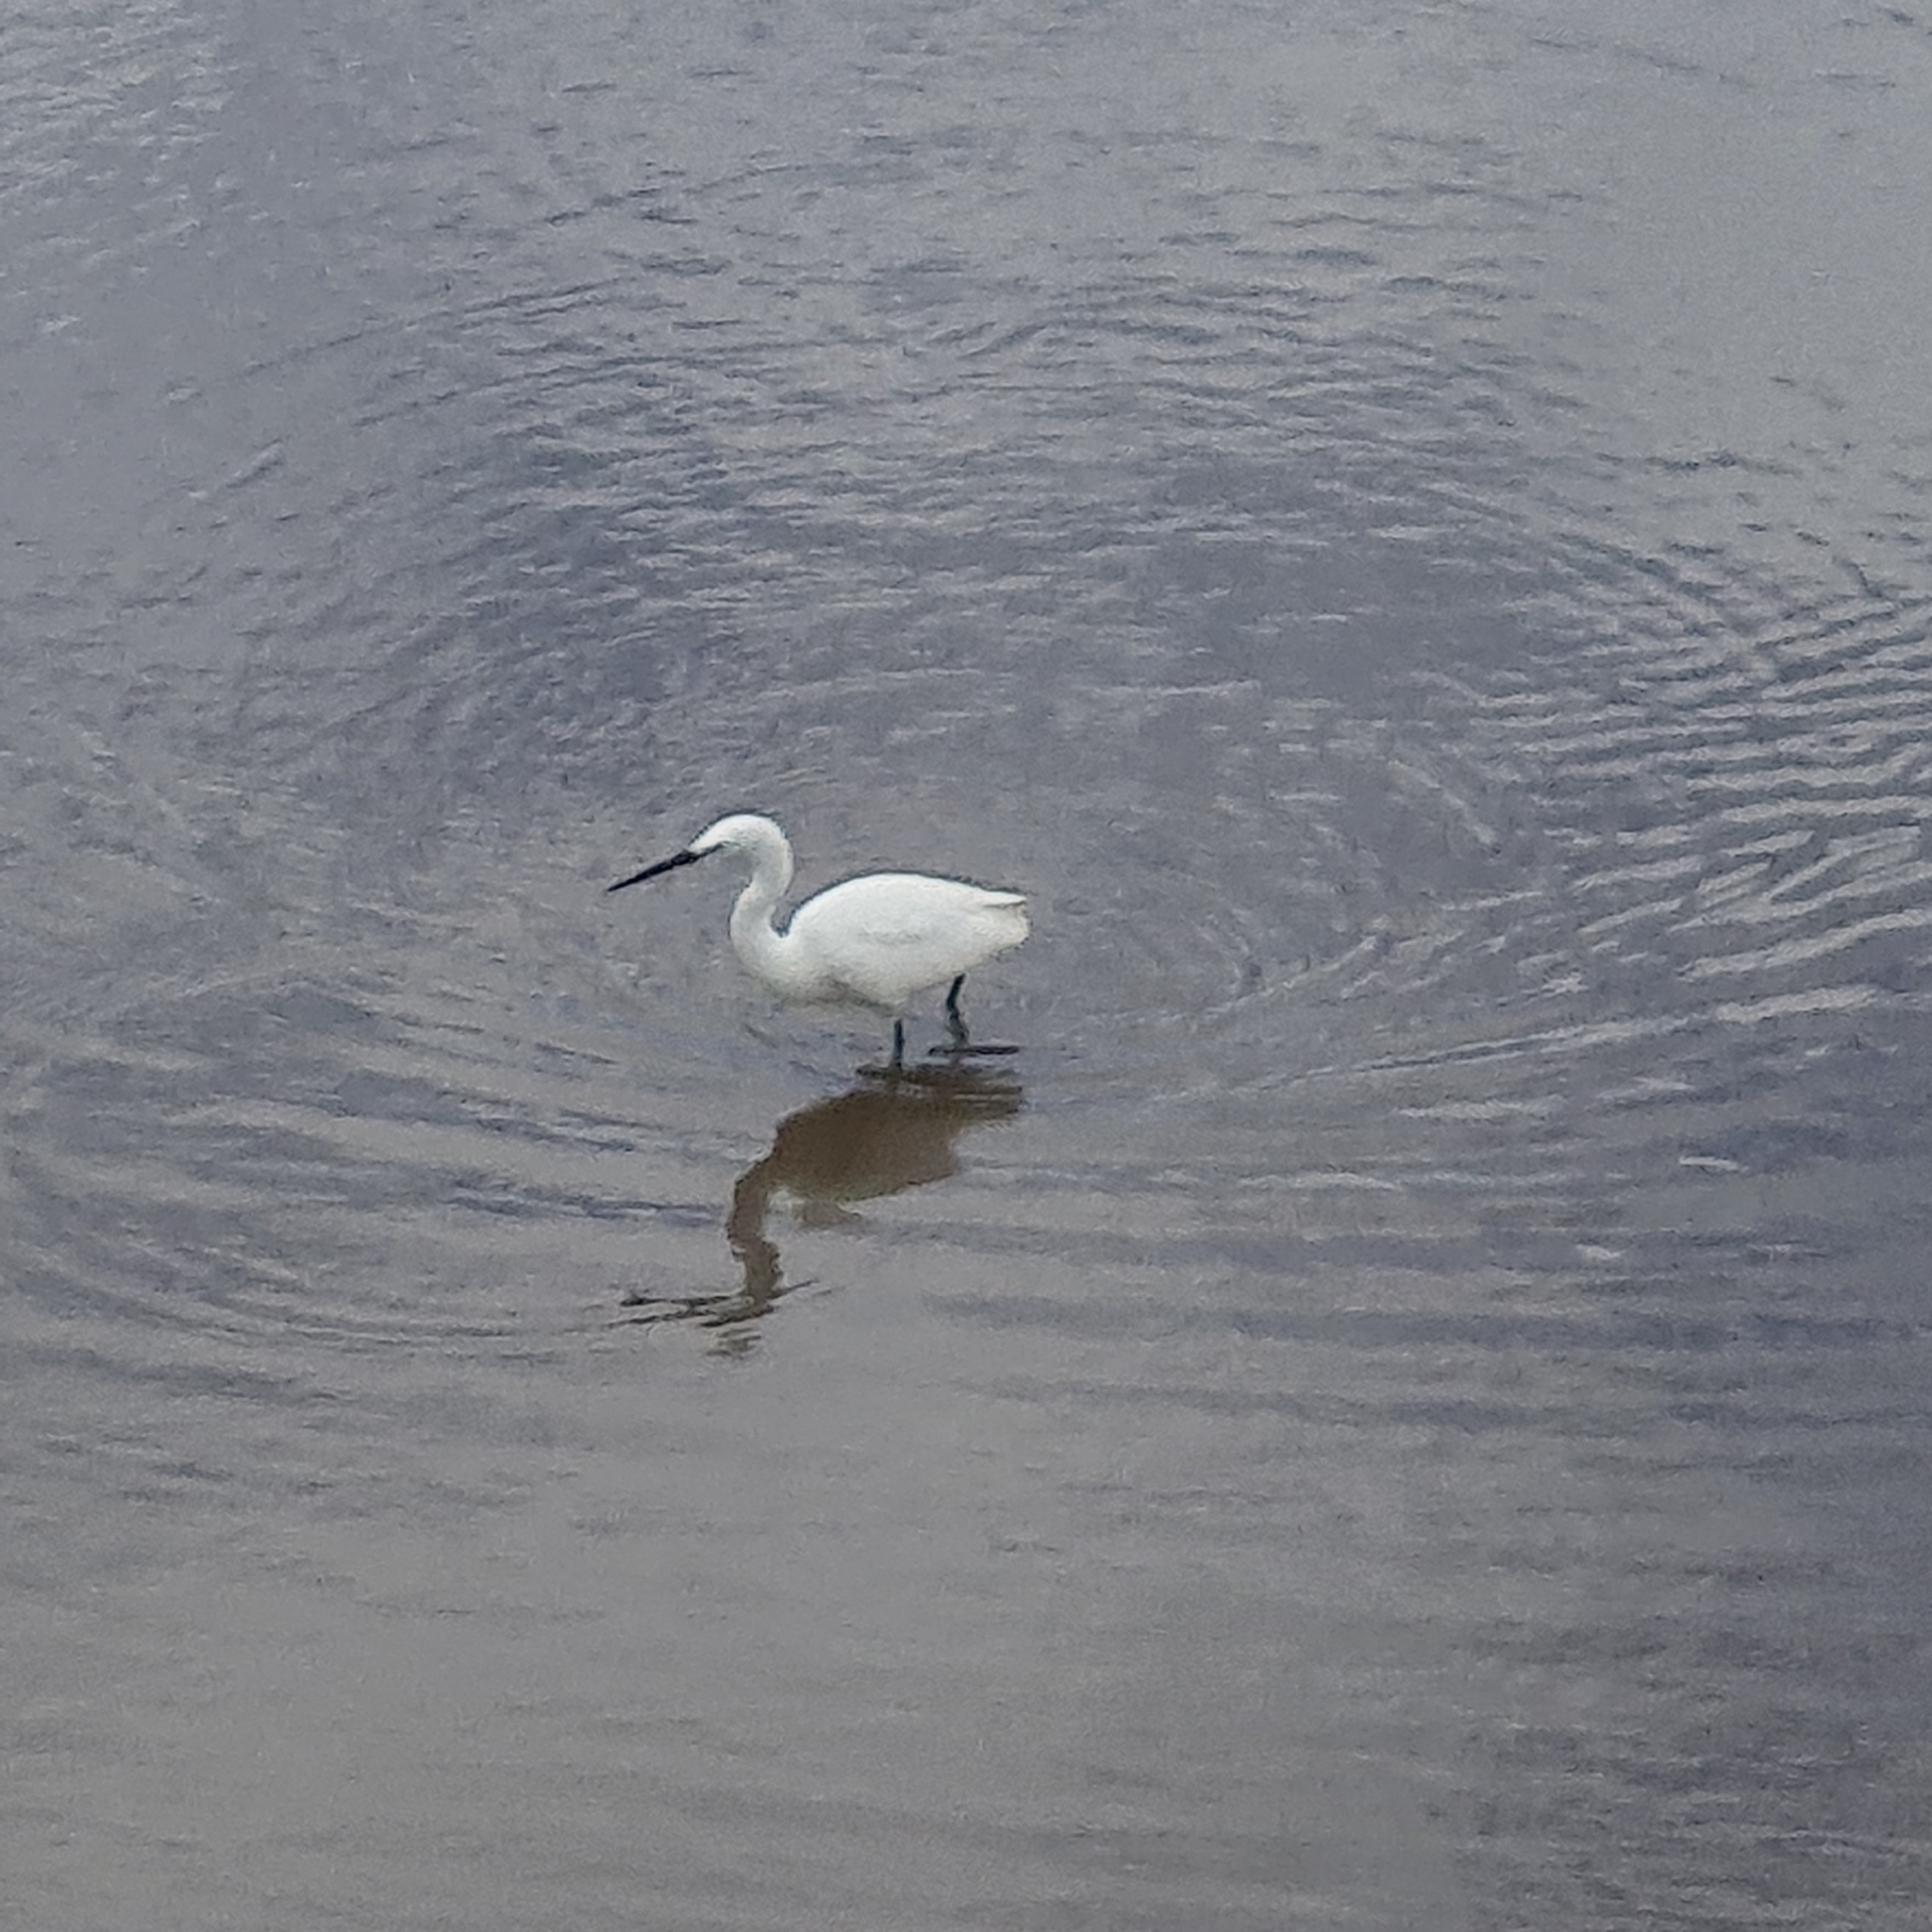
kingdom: Animalia
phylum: Chordata
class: Aves
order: Pelecaniformes
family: Ardeidae
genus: Egretta
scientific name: Egretta garzetta
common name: Little egret
